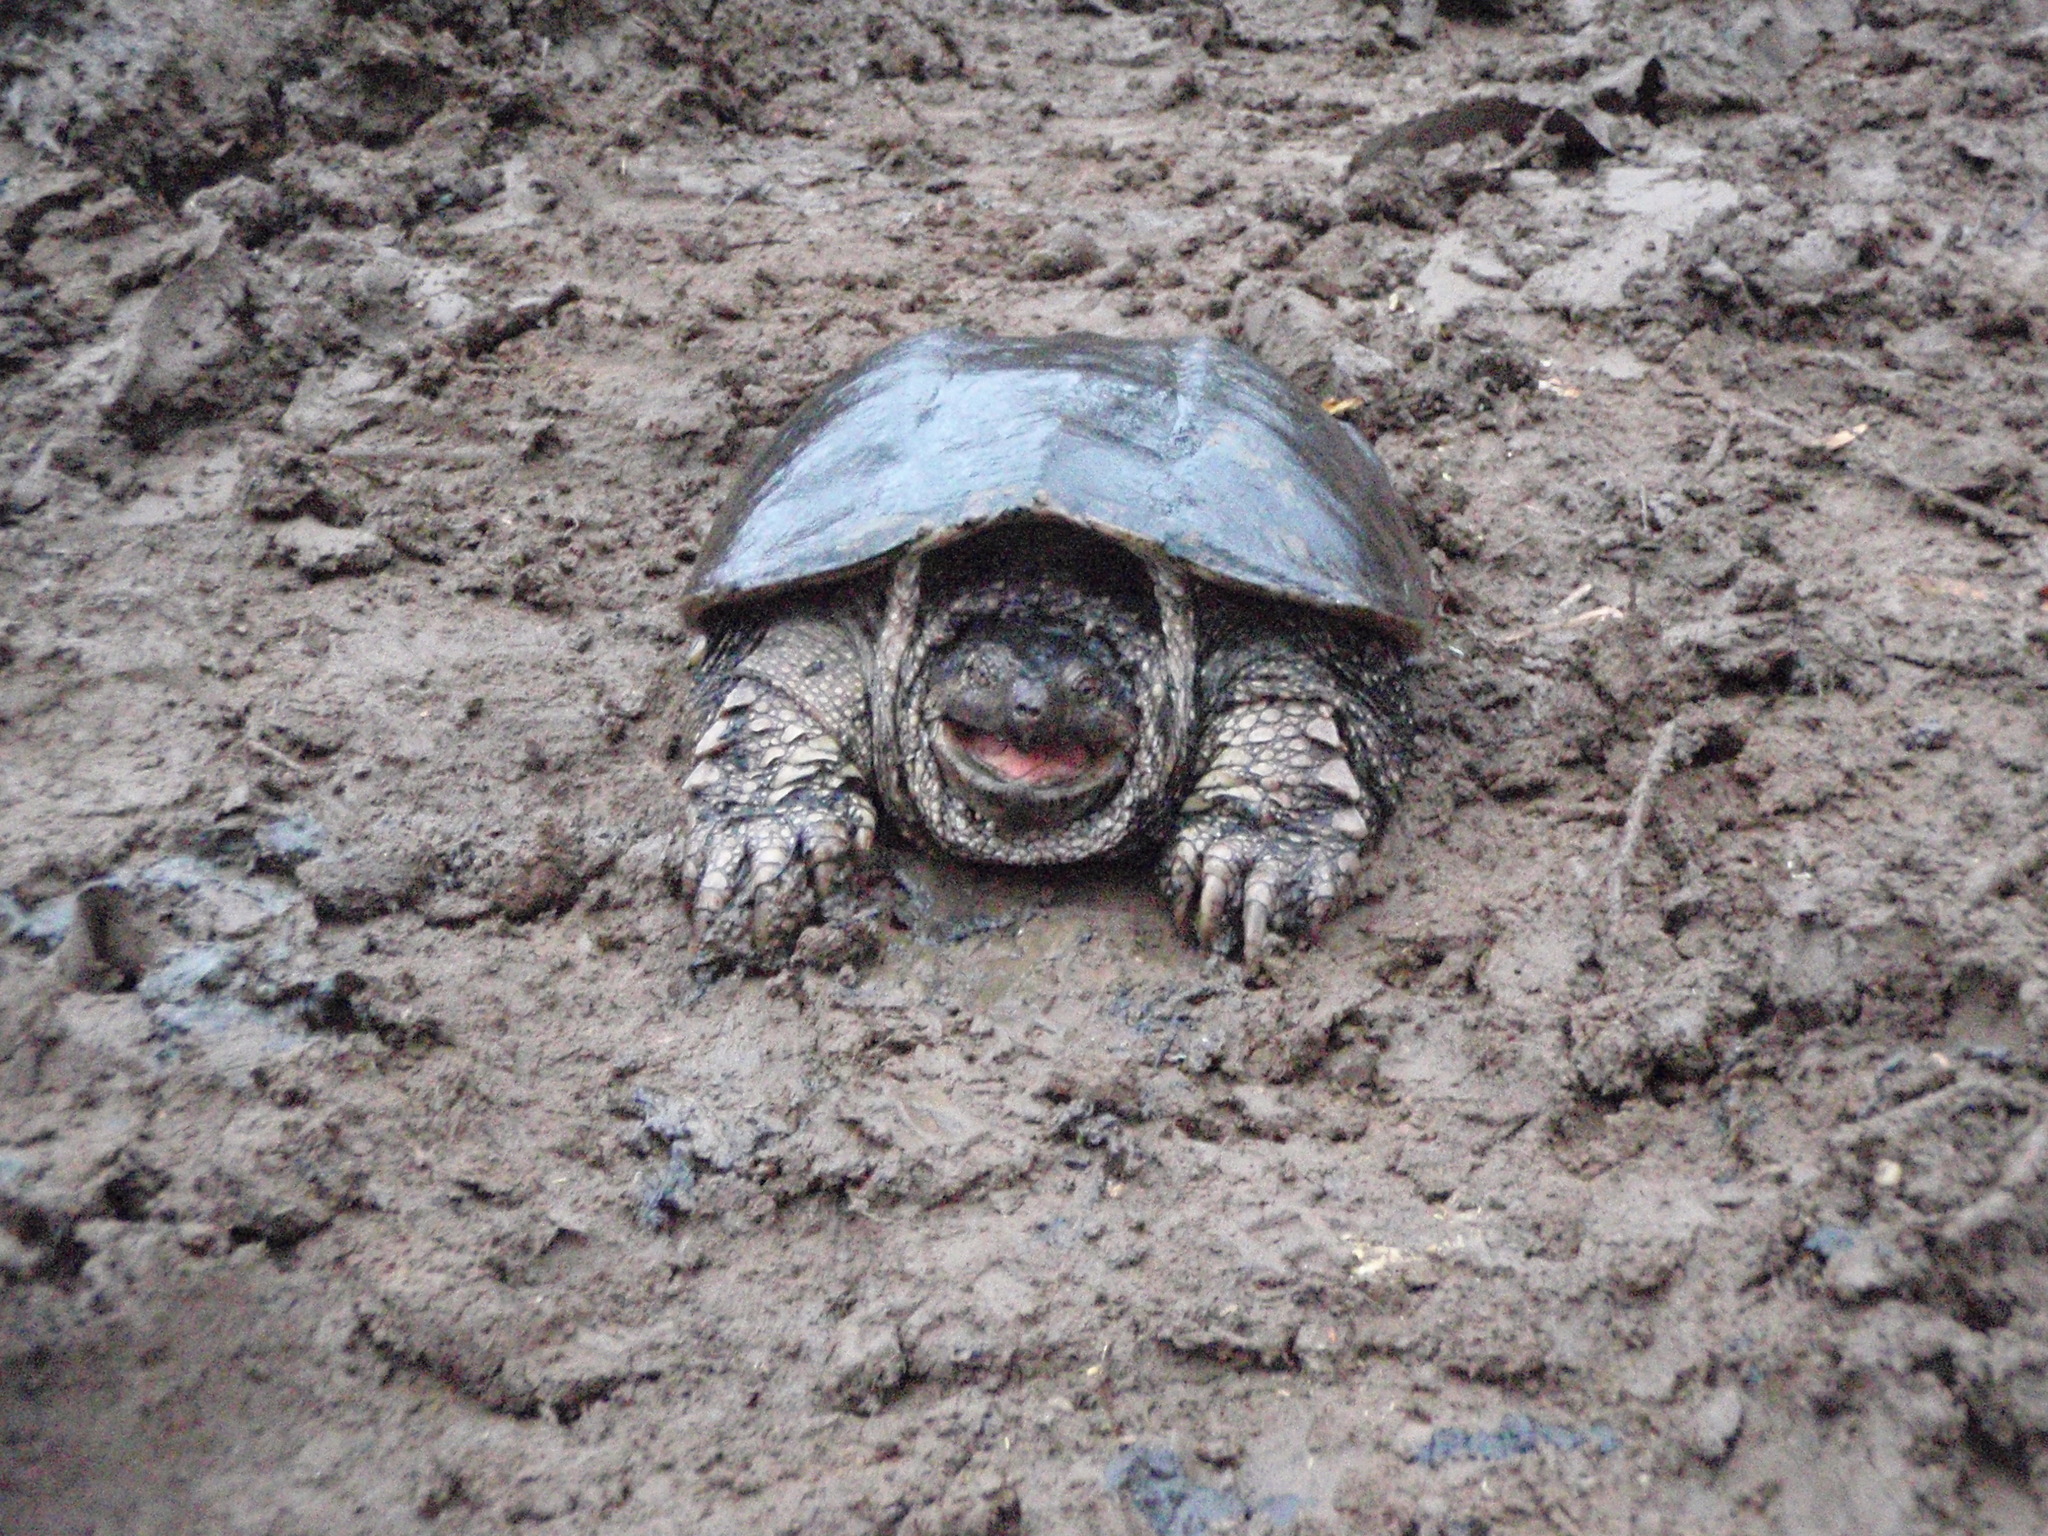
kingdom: Animalia
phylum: Chordata
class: Testudines
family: Chelydridae
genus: Chelydra
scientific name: Chelydra serpentina
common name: Common snapping turtle
